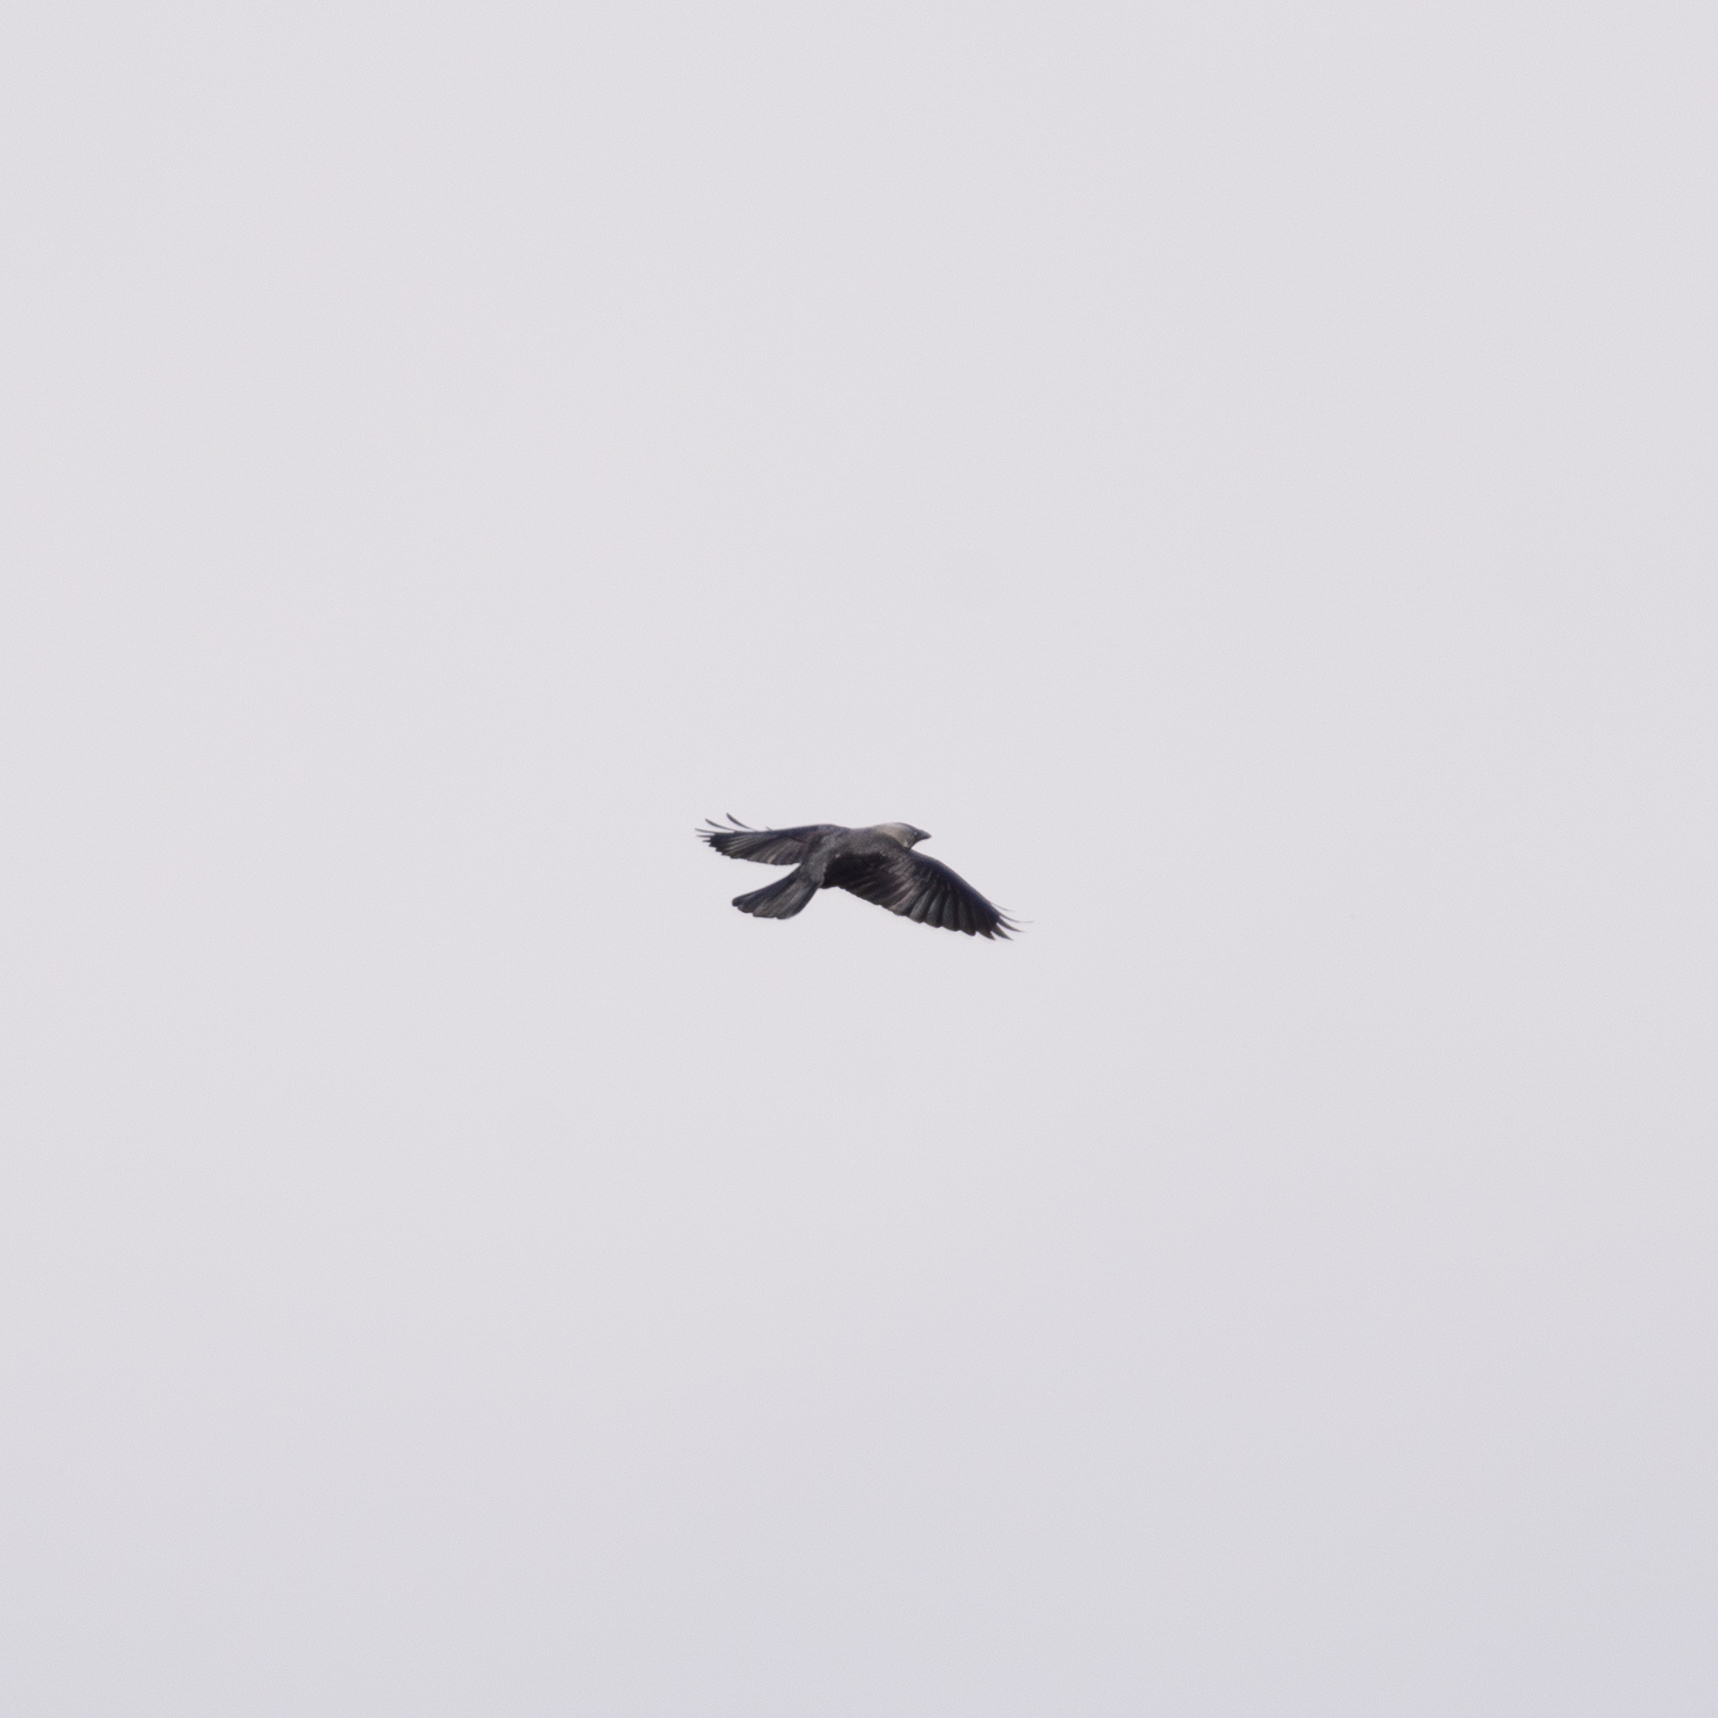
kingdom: Animalia
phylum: Chordata
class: Aves
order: Passeriformes
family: Corvidae
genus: Coloeus
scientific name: Coloeus monedula
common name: Western jackdaw
